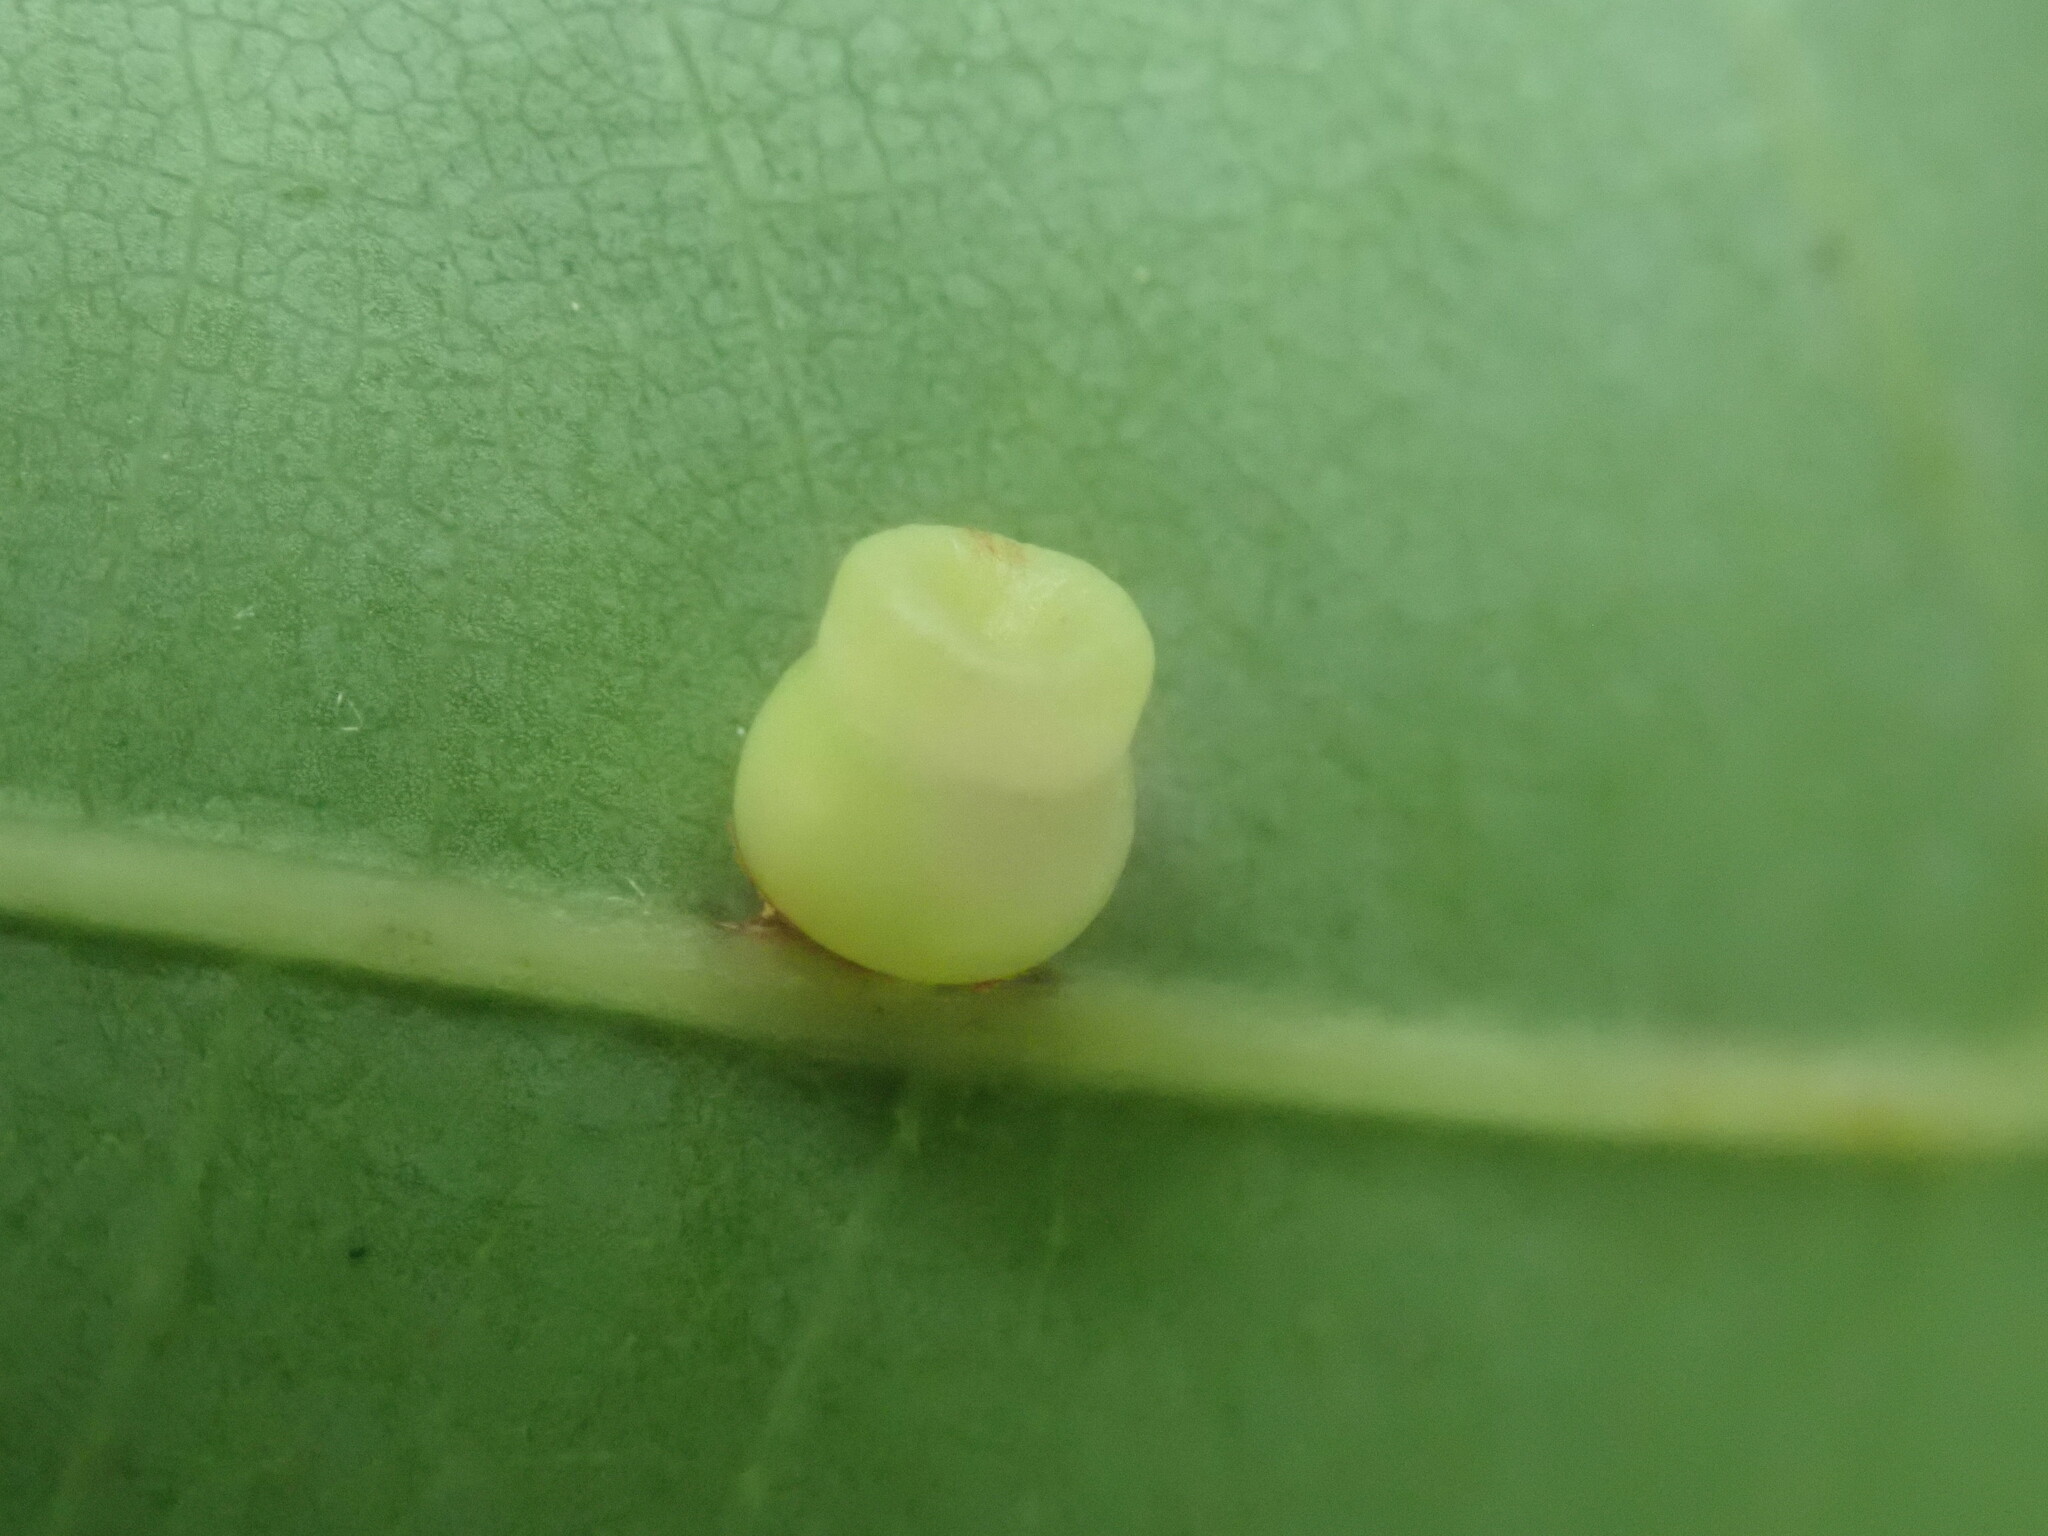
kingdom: Animalia
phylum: Arthropoda
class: Insecta
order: Hymenoptera
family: Cynipidae
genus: Kokkocynips
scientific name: Kokkocynips rileyi
